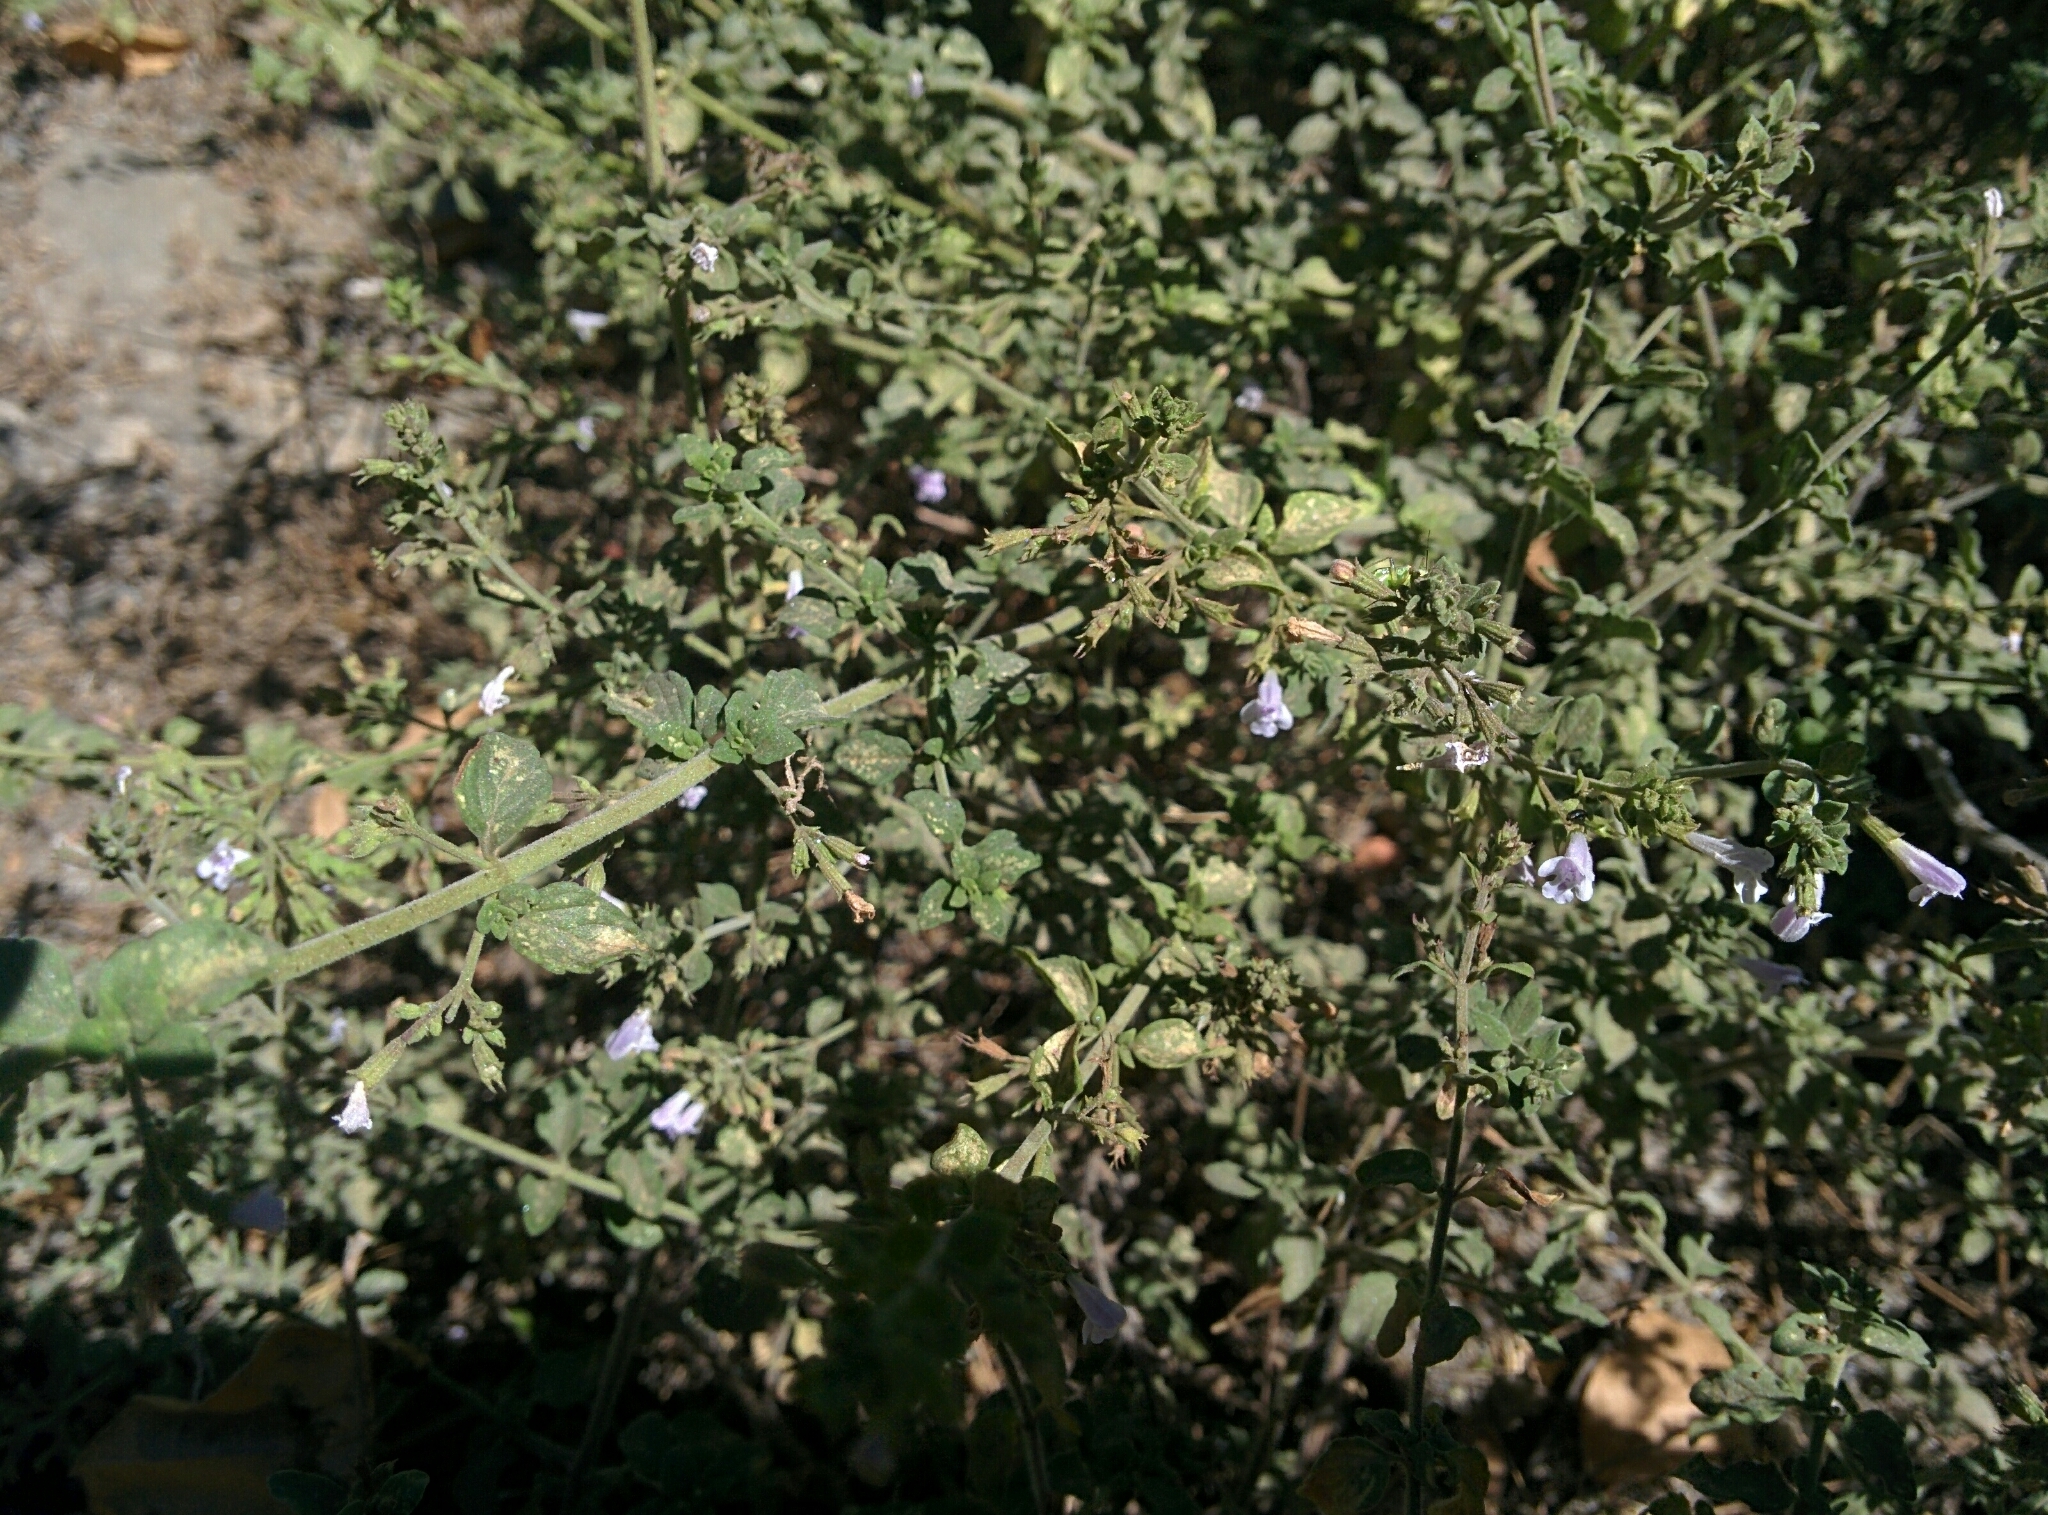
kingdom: Plantae
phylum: Tracheophyta
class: Magnoliopsida
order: Lamiales
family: Lamiaceae
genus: Clinopodium
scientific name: Clinopodium nepeta
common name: Lesser calamint
